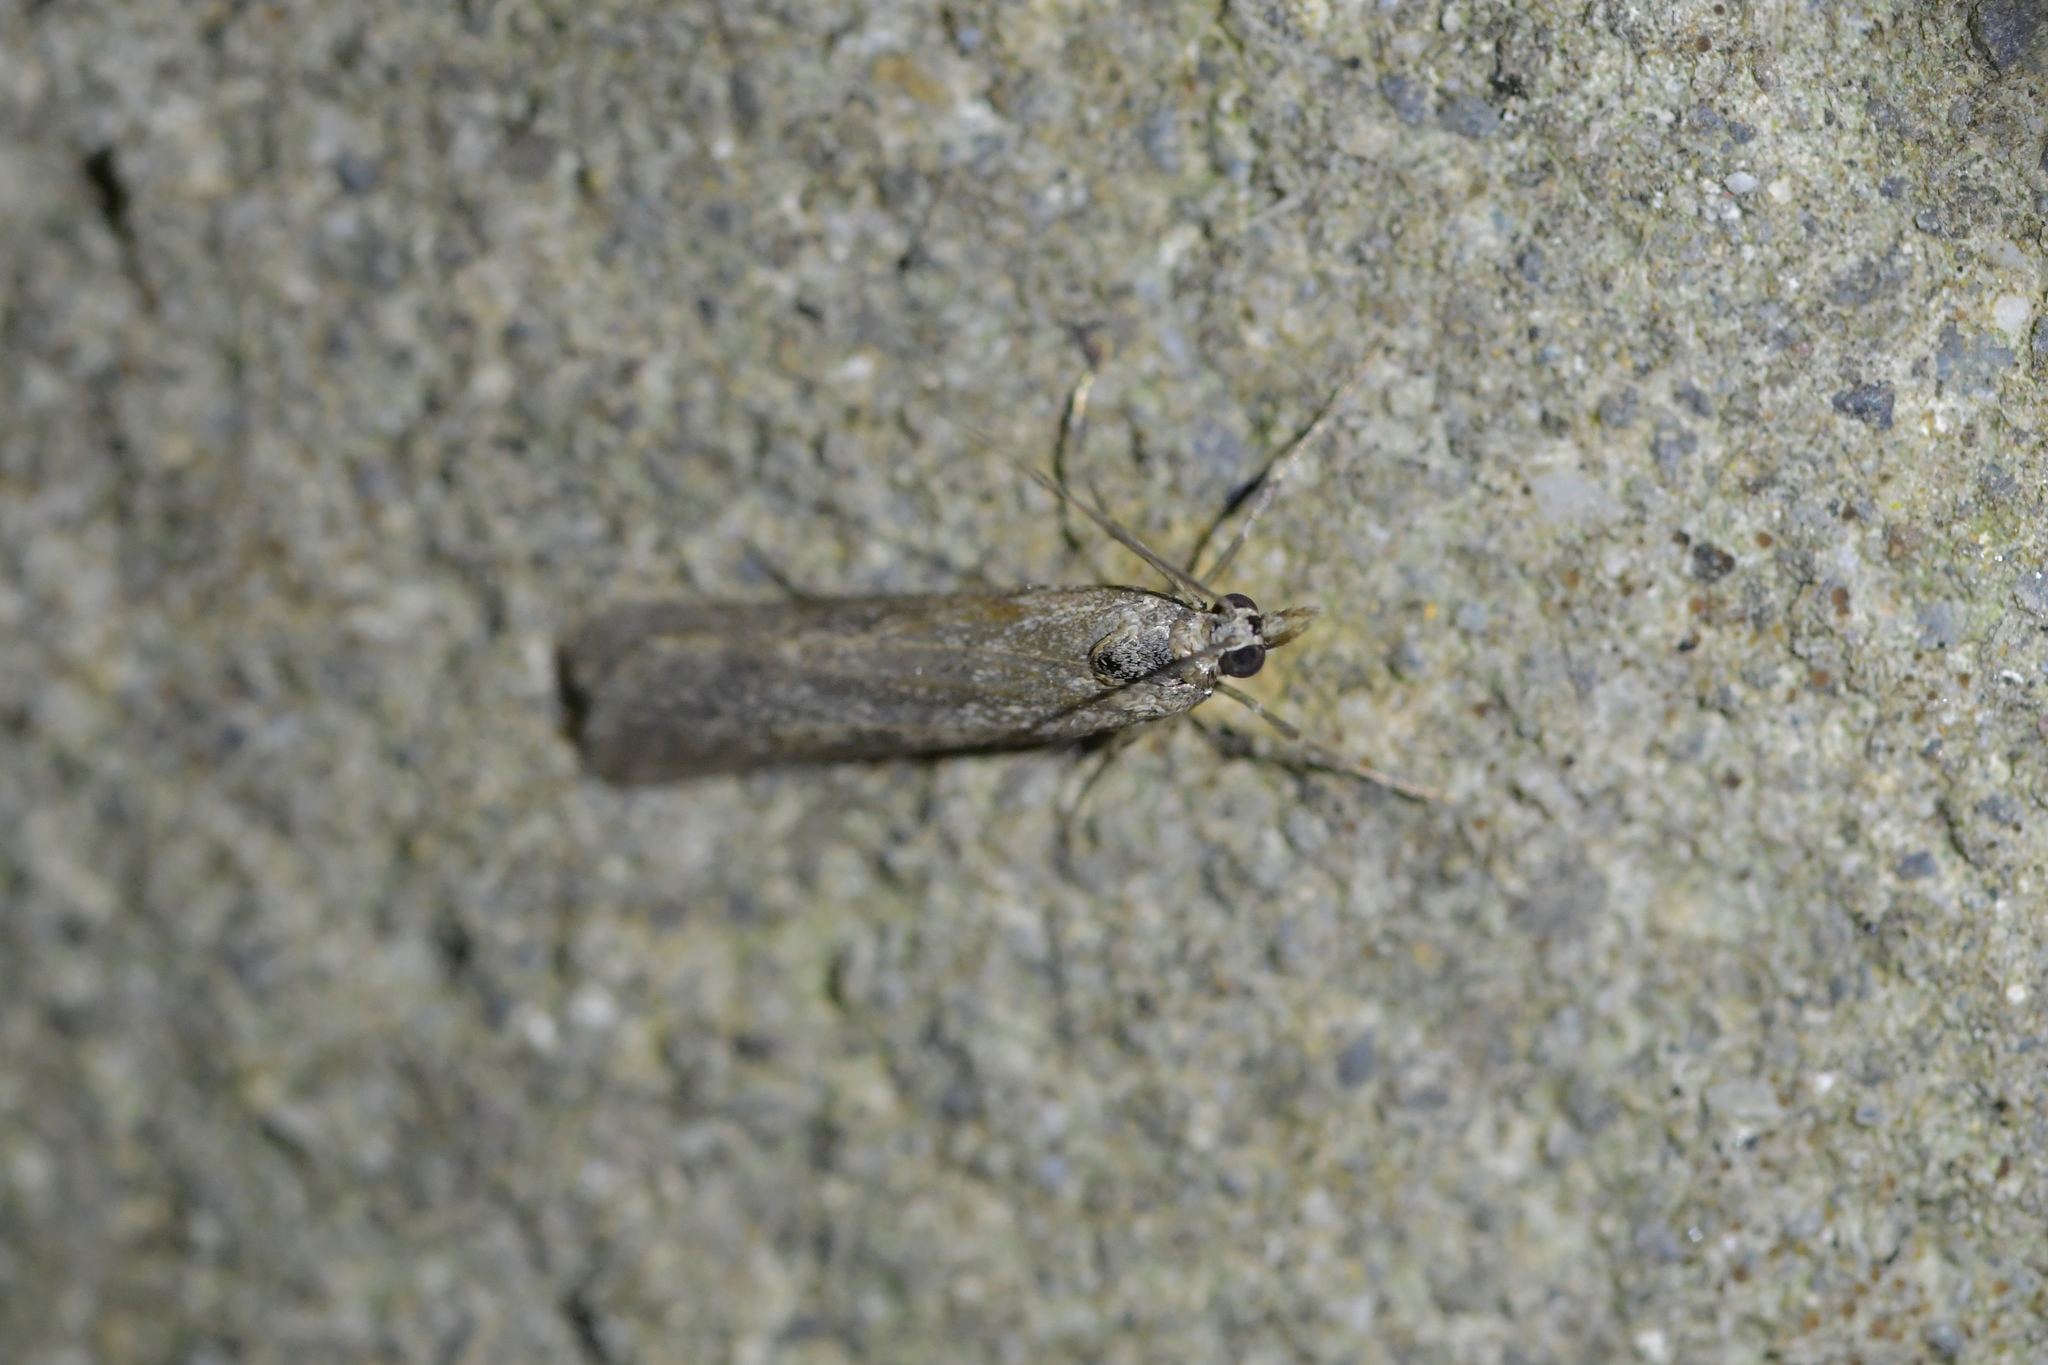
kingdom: Animalia
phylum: Arthropoda
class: Insecta
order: Lepidoptera
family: Crambidae
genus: Eudonia
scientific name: Eudonia leptalea
